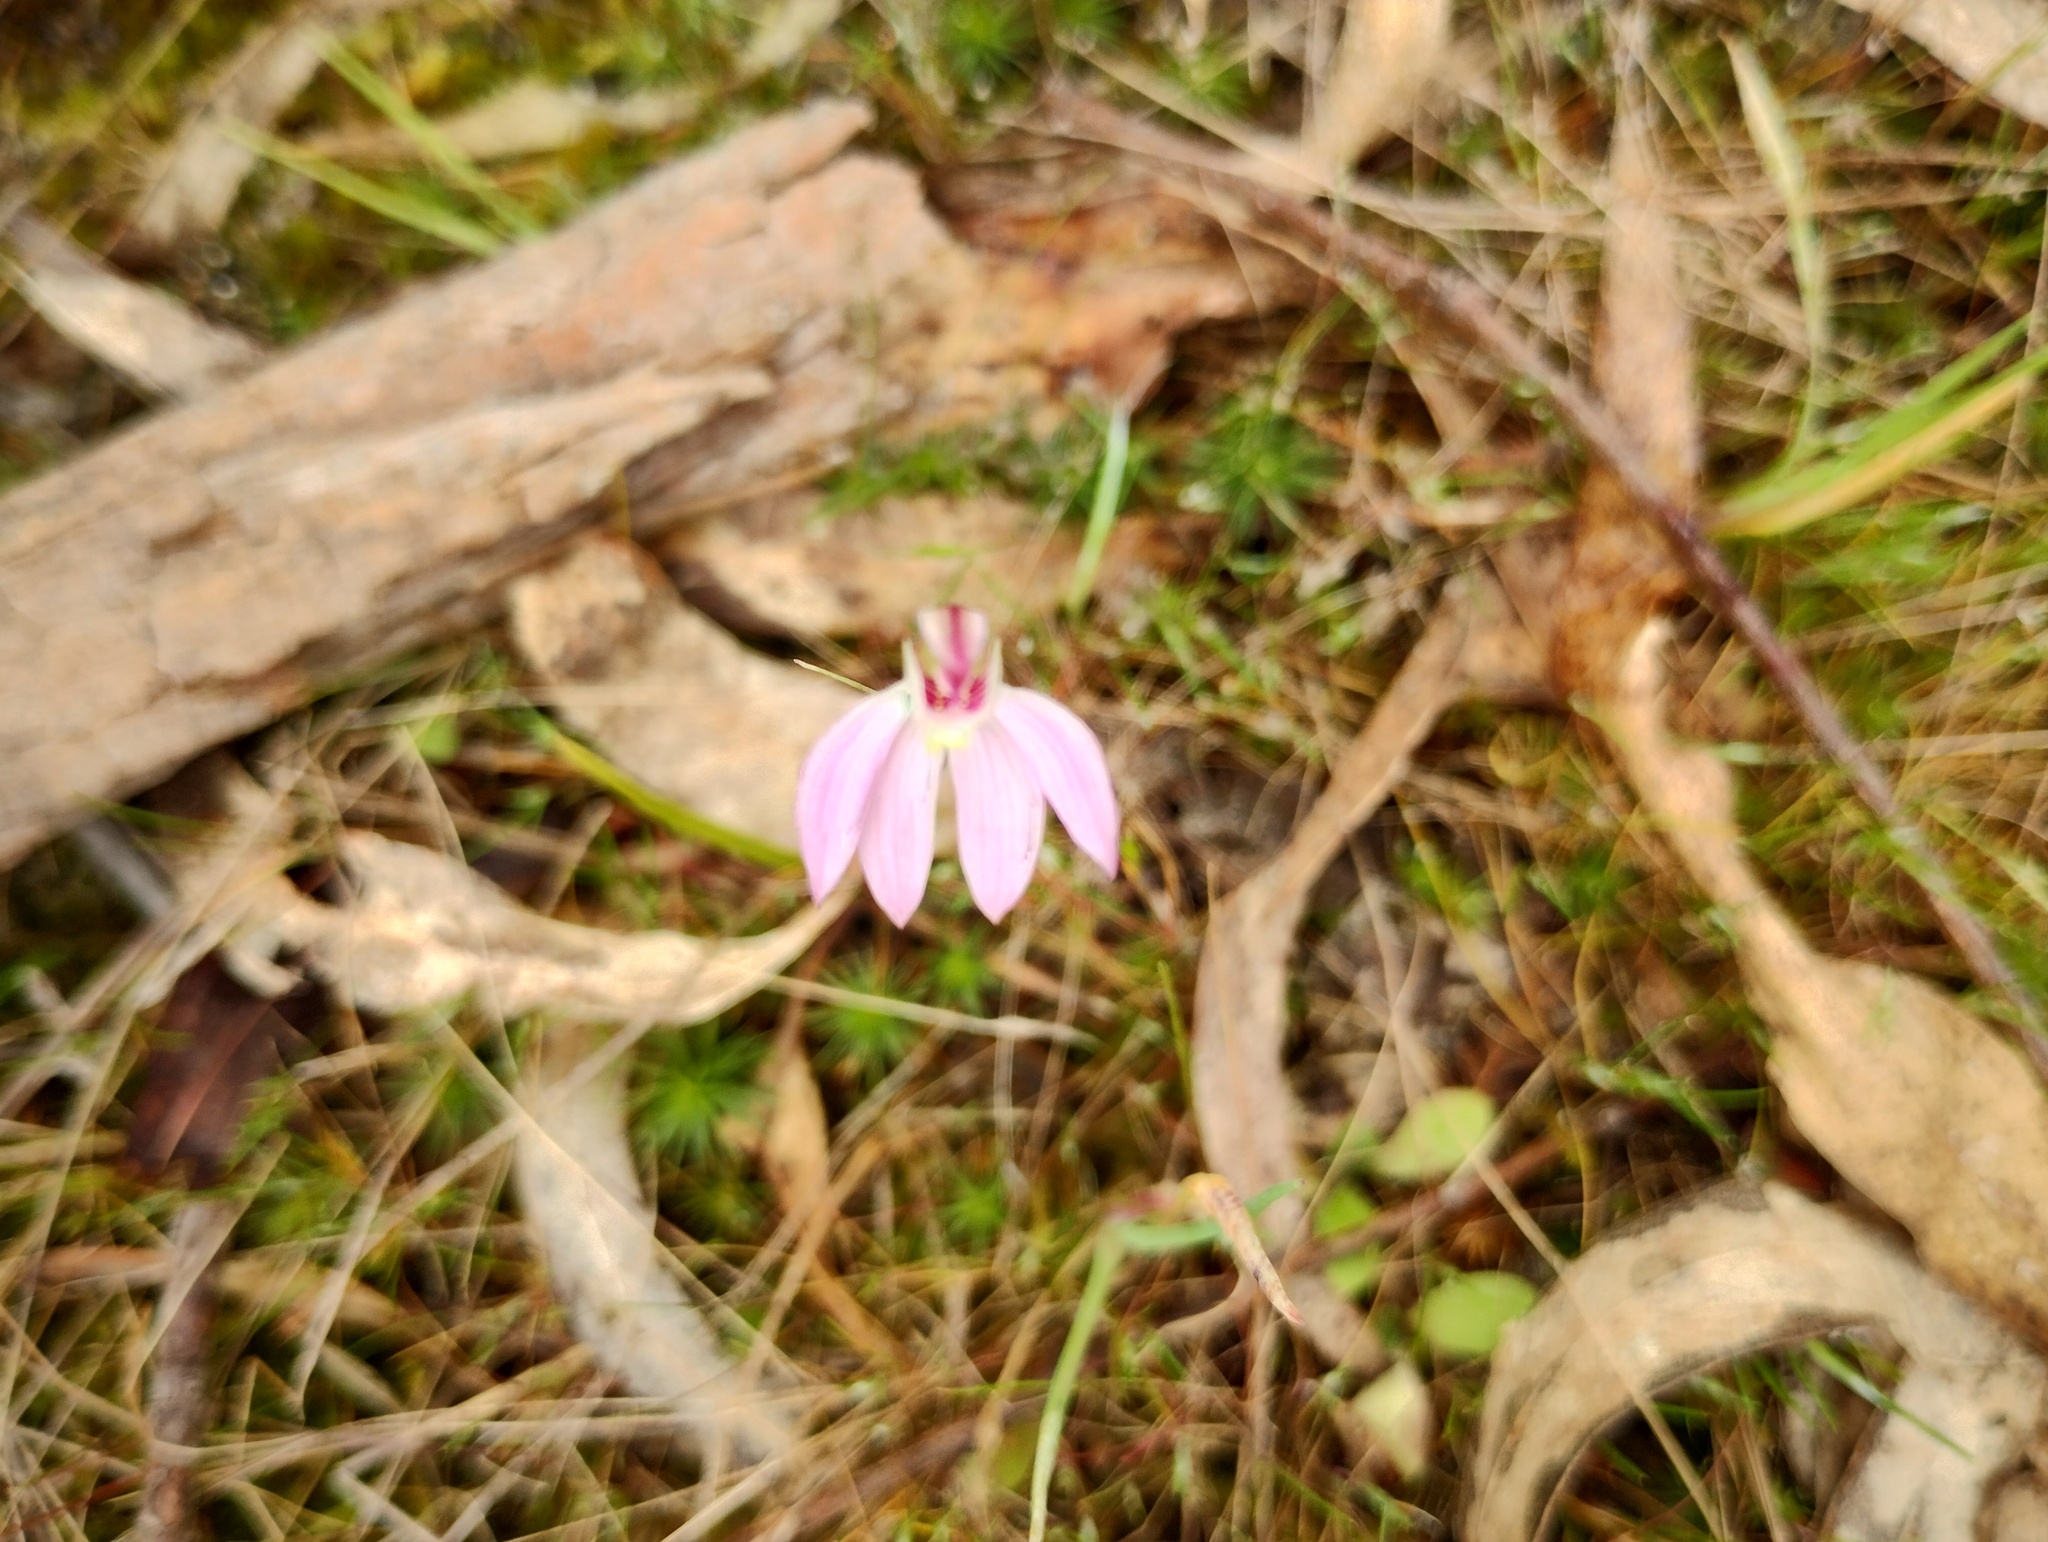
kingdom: Plantae
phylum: Tracheophyta
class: Liliopsida
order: Asparagales
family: Orchidaceae
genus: Caladenia
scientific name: Caladenia carnea
